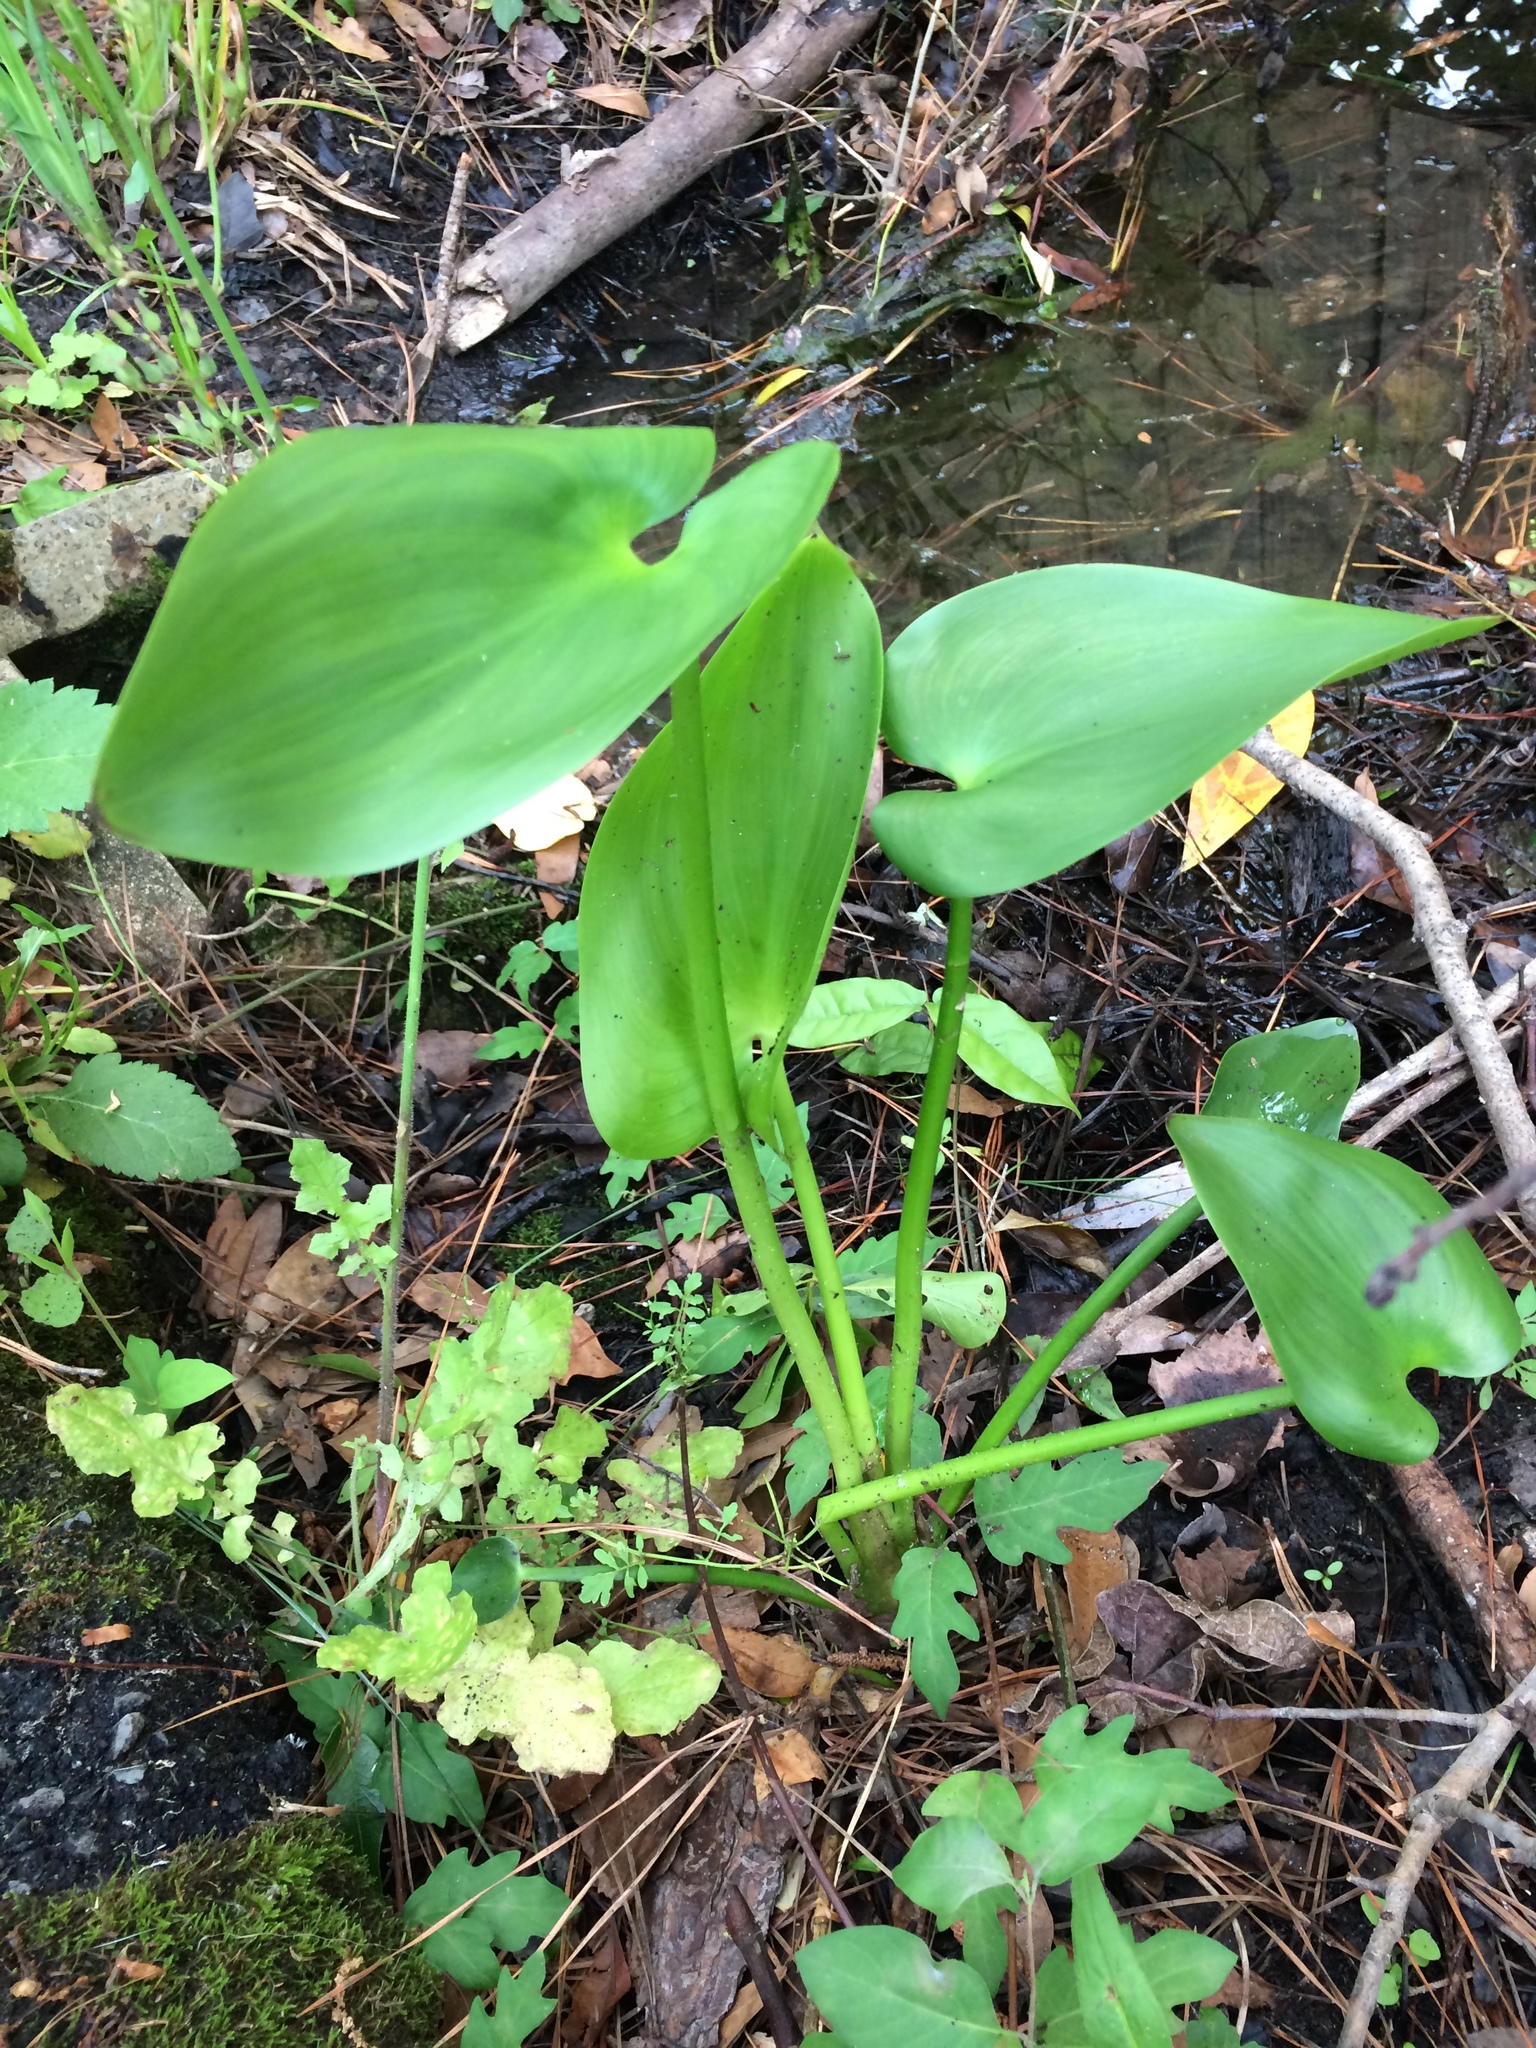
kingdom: Plantae
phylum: Tracheophyta
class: Liliopsida
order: Commelinales
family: Pontederiaceae
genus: Pontederia
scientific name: Pontederia cordata
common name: Pickerelweed
